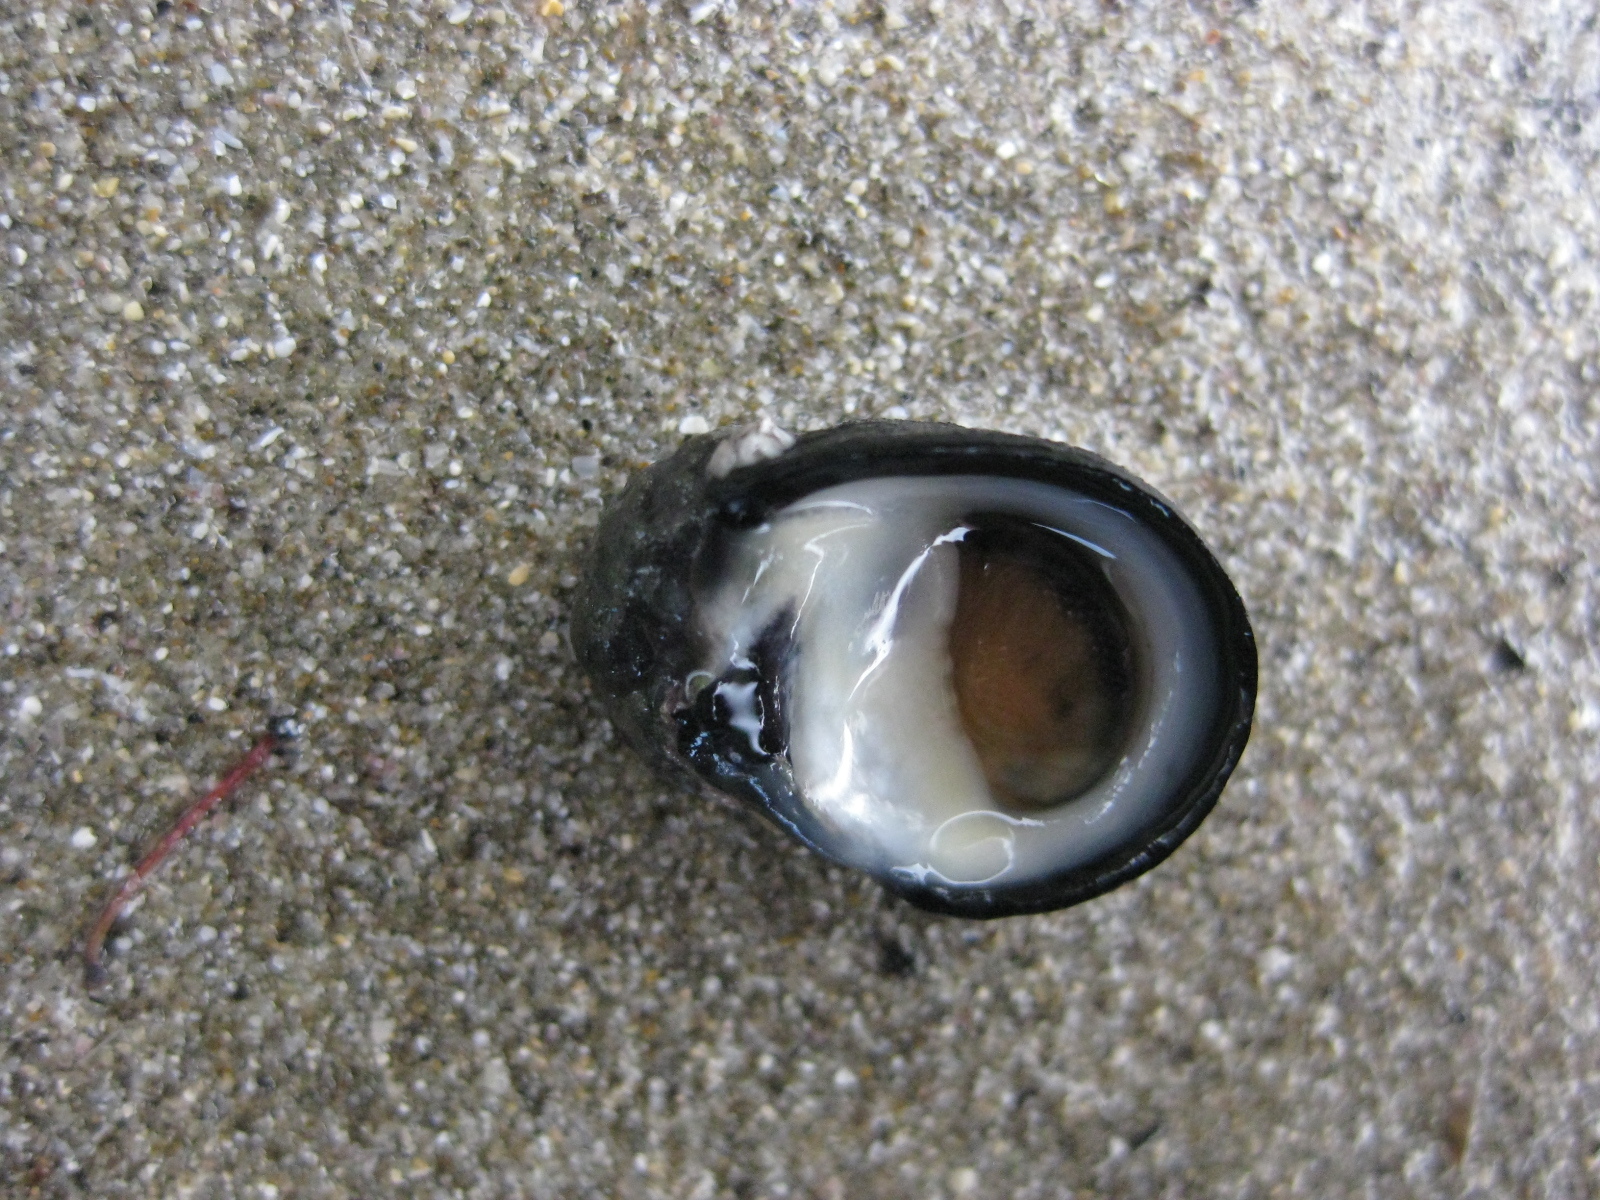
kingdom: Animalia
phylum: Mollusca
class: Gastropoda
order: Cycloneritida
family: Neritidae
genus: Nerita
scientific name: Nerita melanotragus
